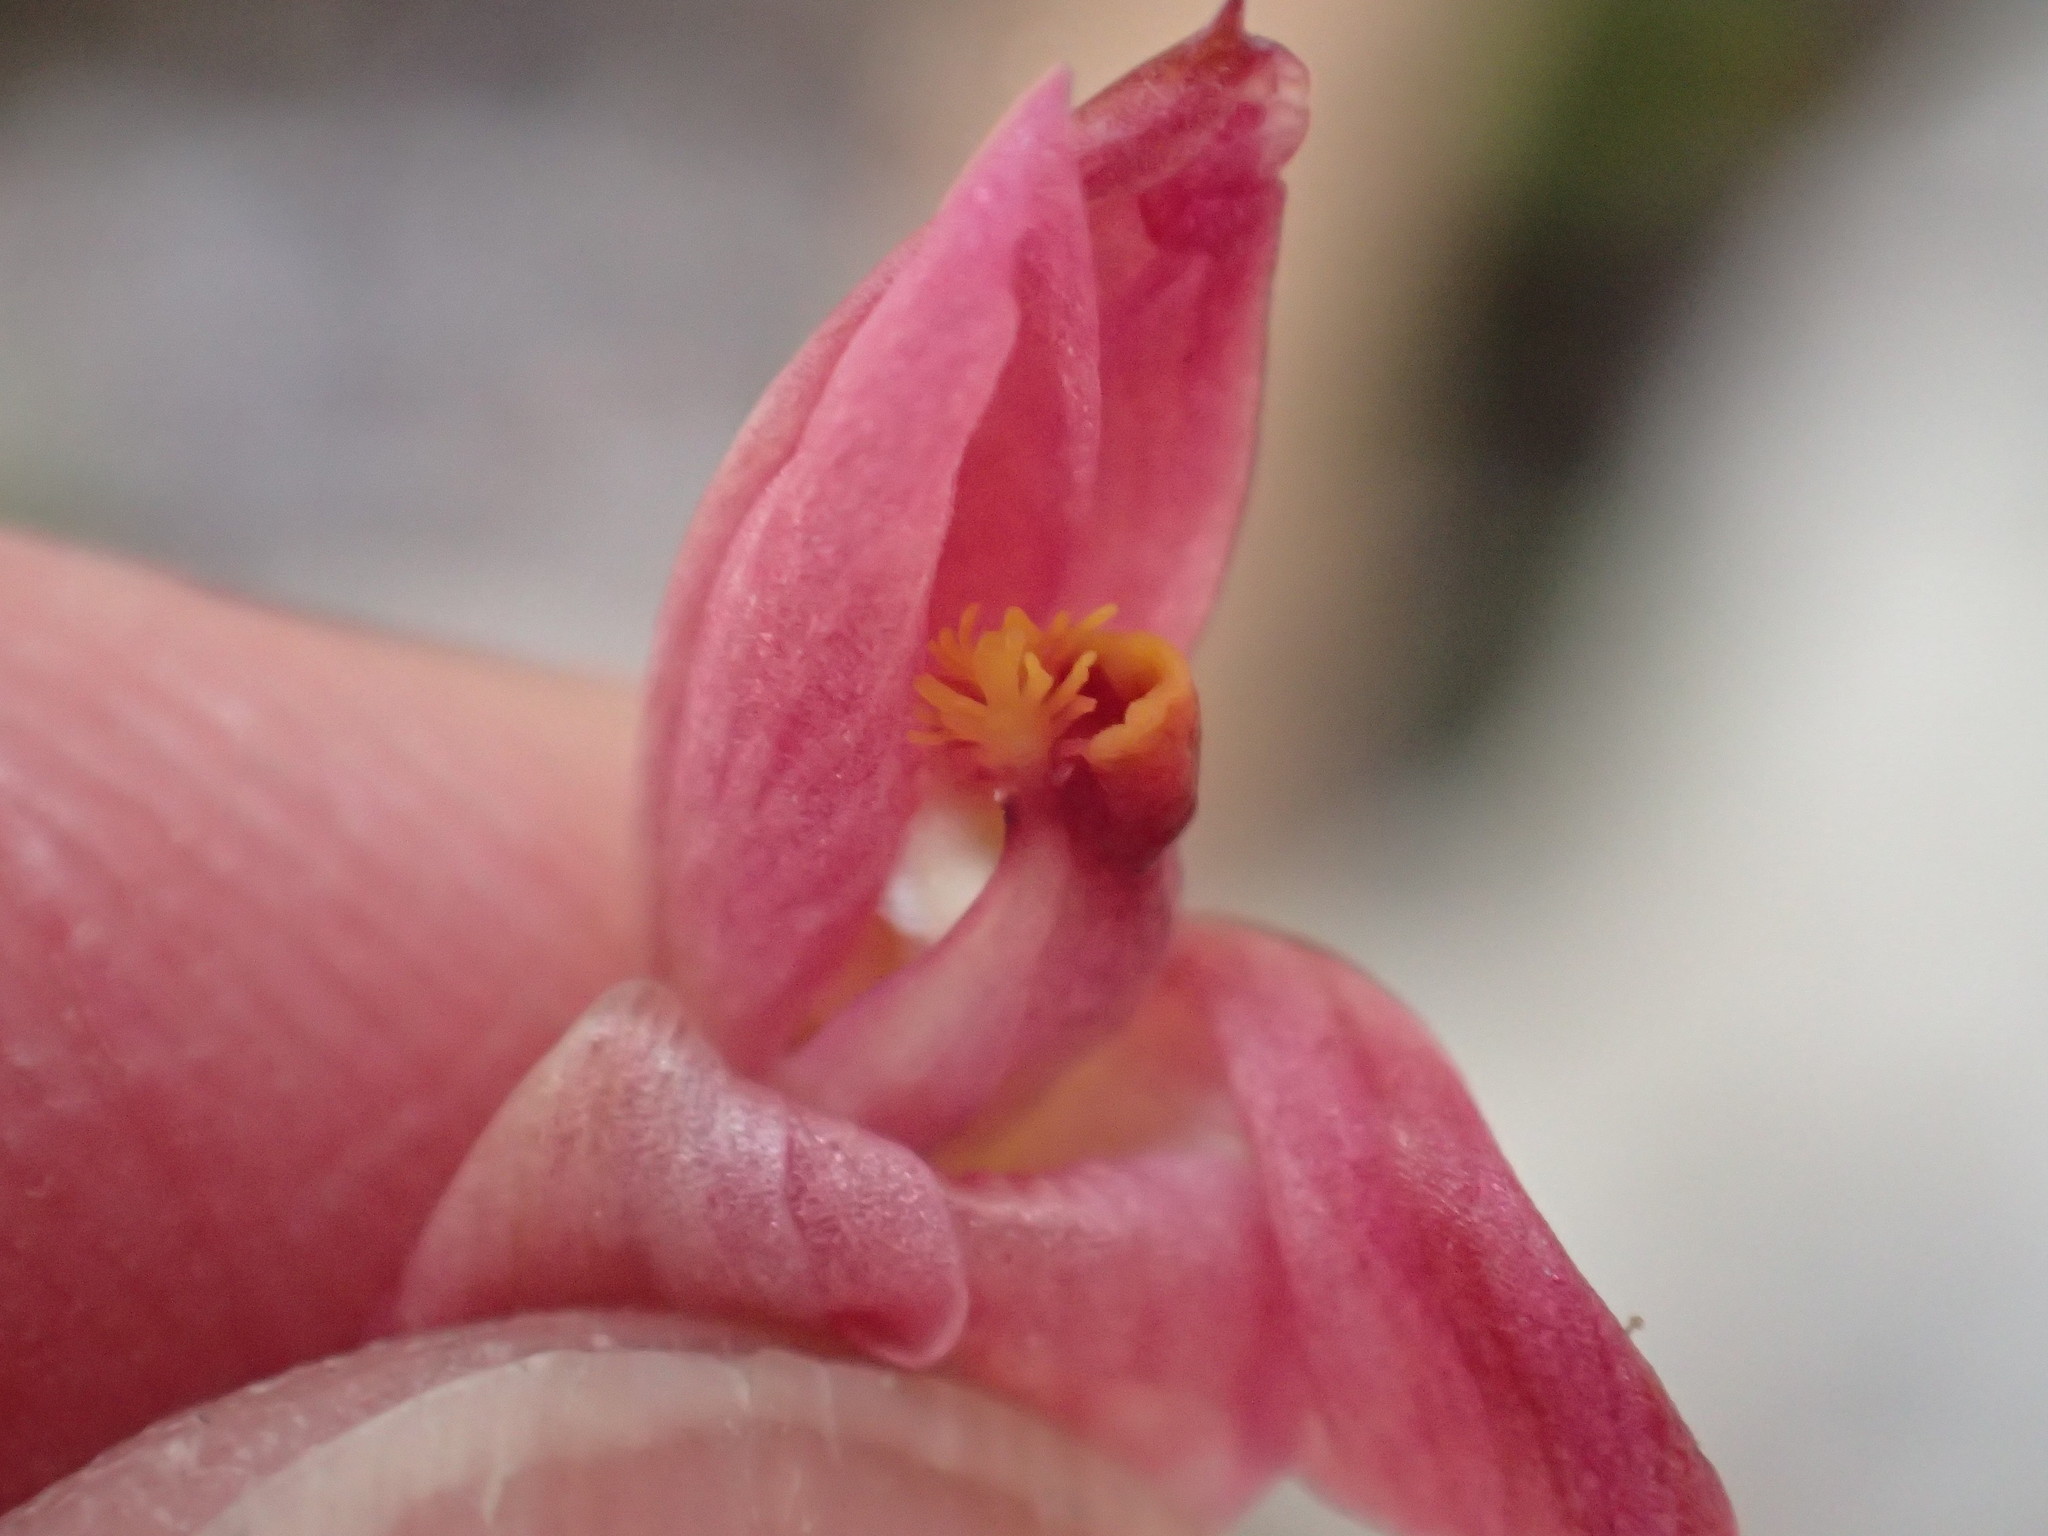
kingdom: Plantae
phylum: Tracheophyta
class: Liliopsida
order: Asparagales
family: Orchidaceae
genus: Thelymitra
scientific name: Thelymitra rubra
